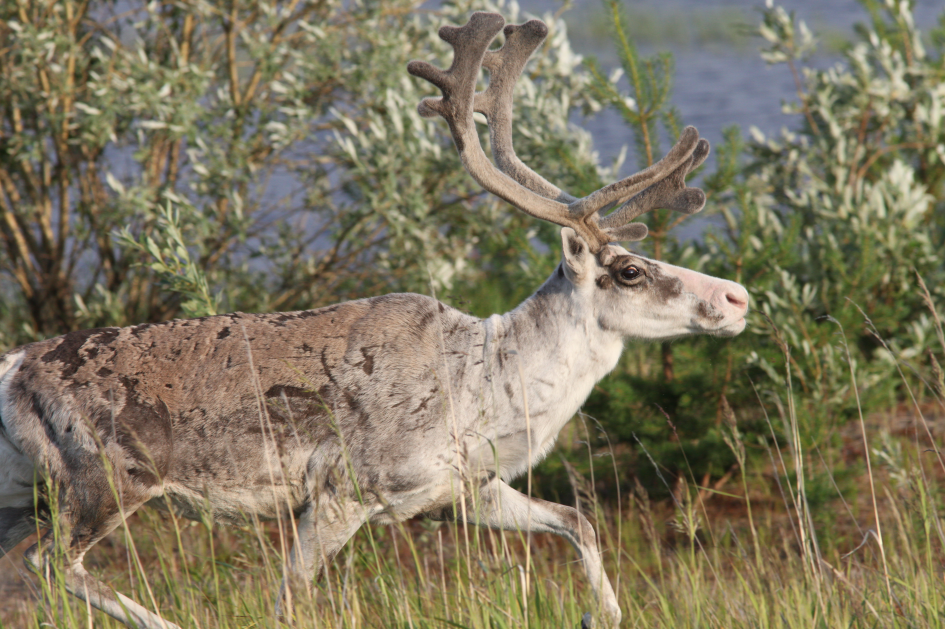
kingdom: Animalia
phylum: Chordata
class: Mammalia
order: Artiodactyla
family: Cervidae
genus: Rangifer
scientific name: Rangifer tarandus
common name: Reindeer
